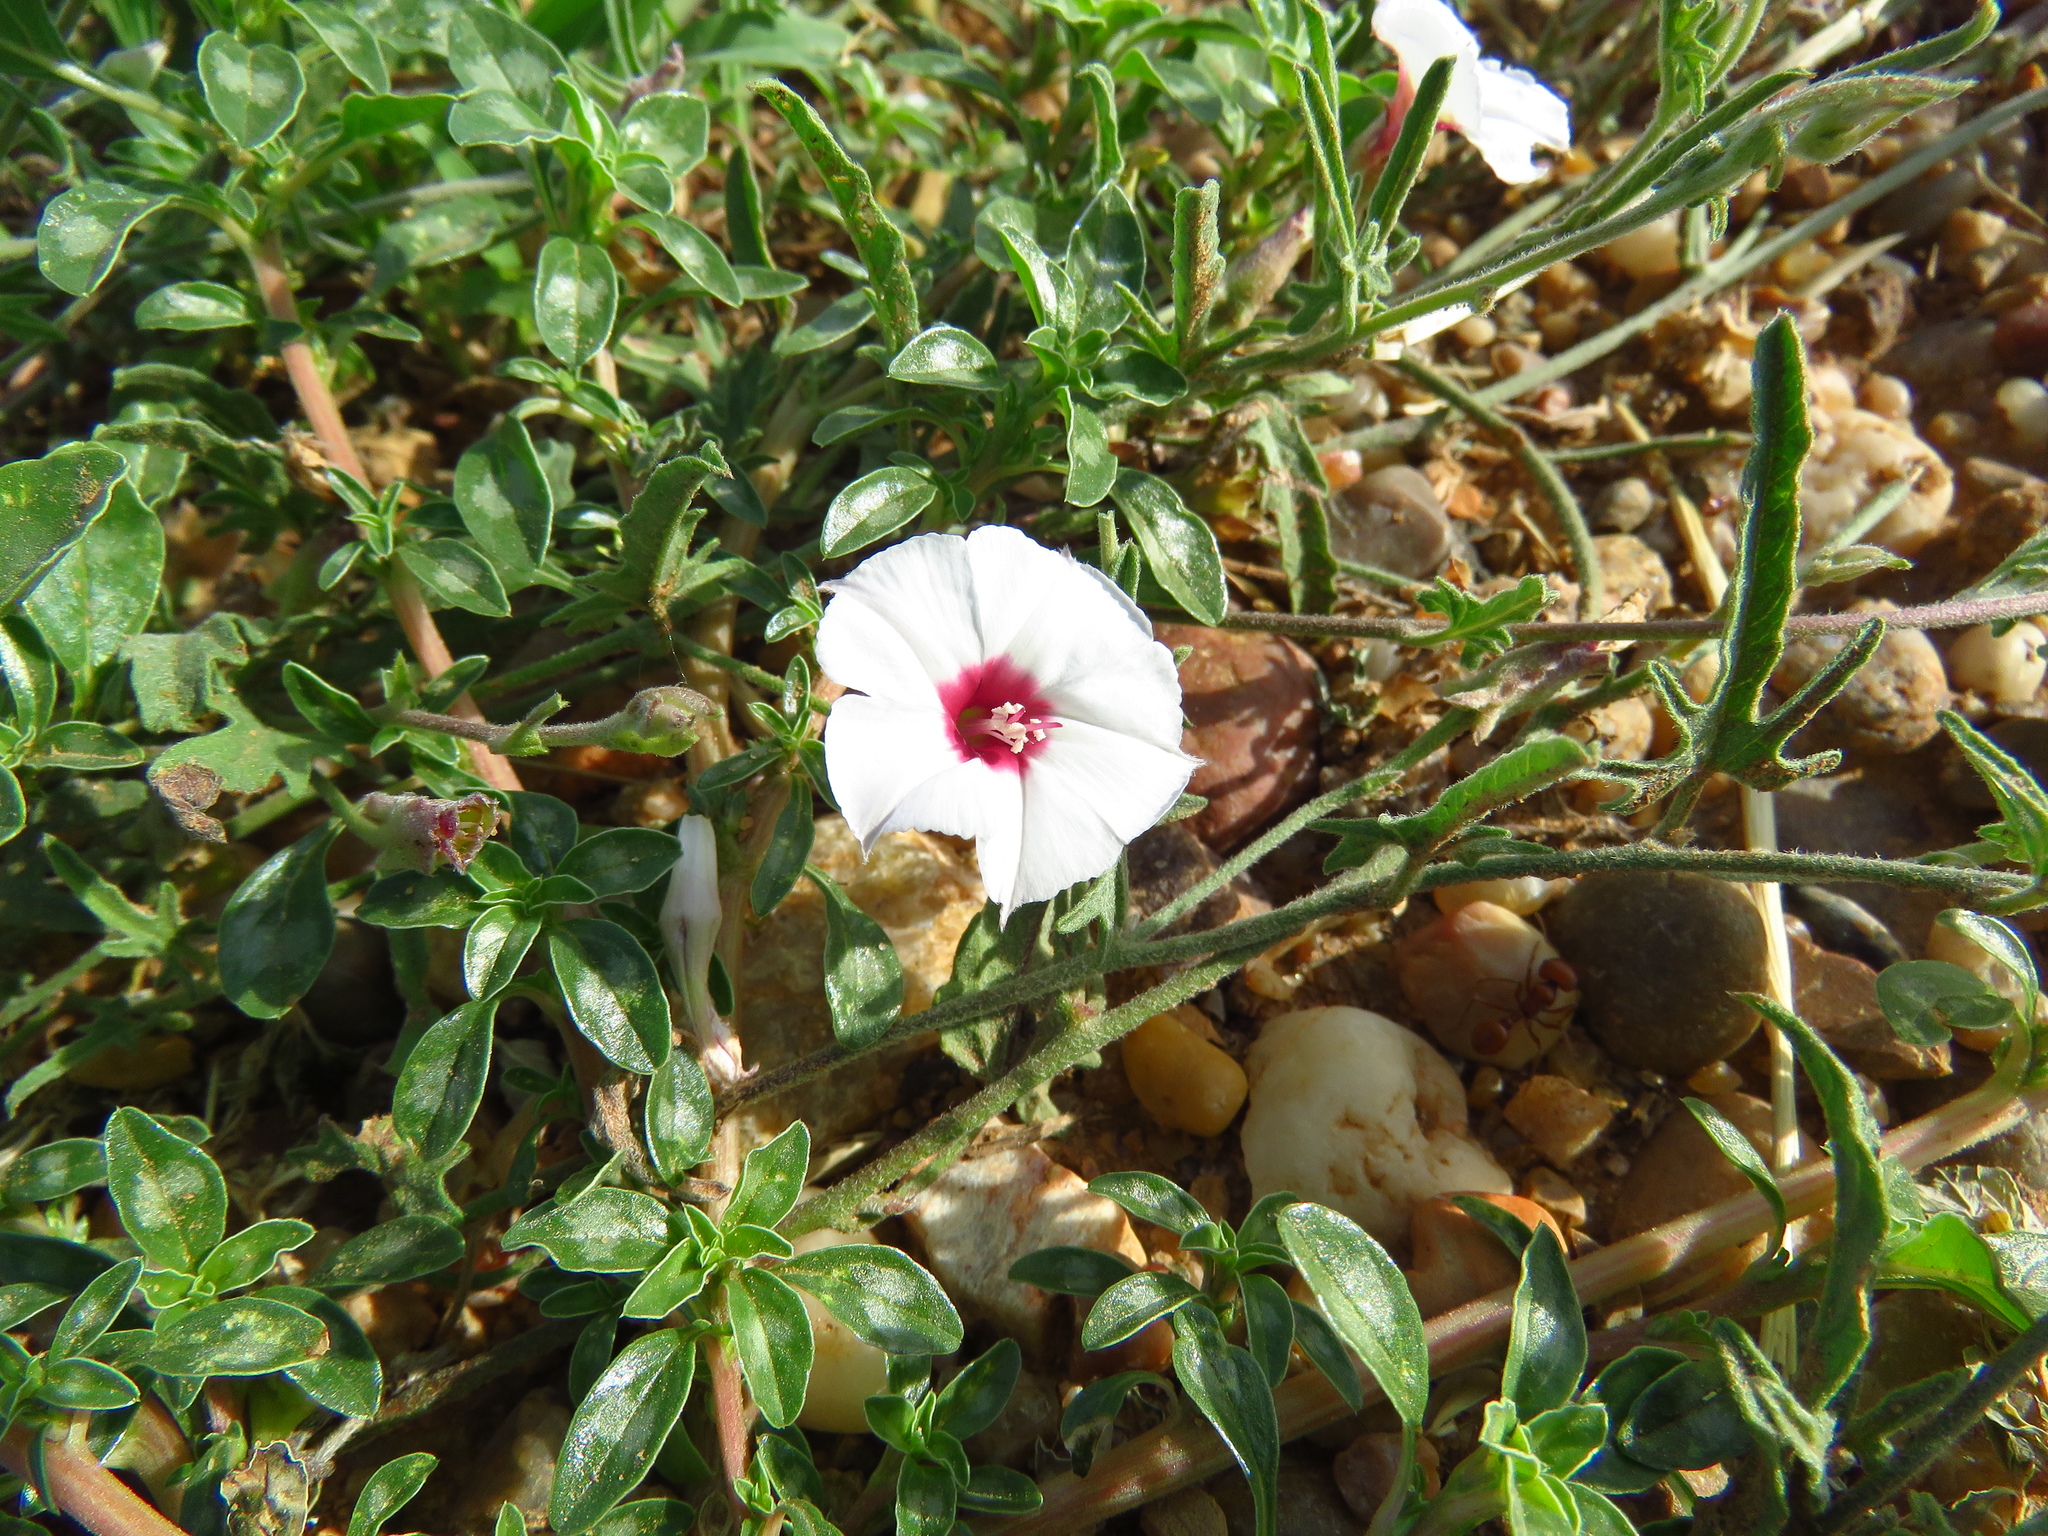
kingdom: Plantae
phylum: Tracheophyta
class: Magnoliopsida
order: Solanales
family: Convolvulaceae
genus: Convolvulus
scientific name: Convolvulus equitans
